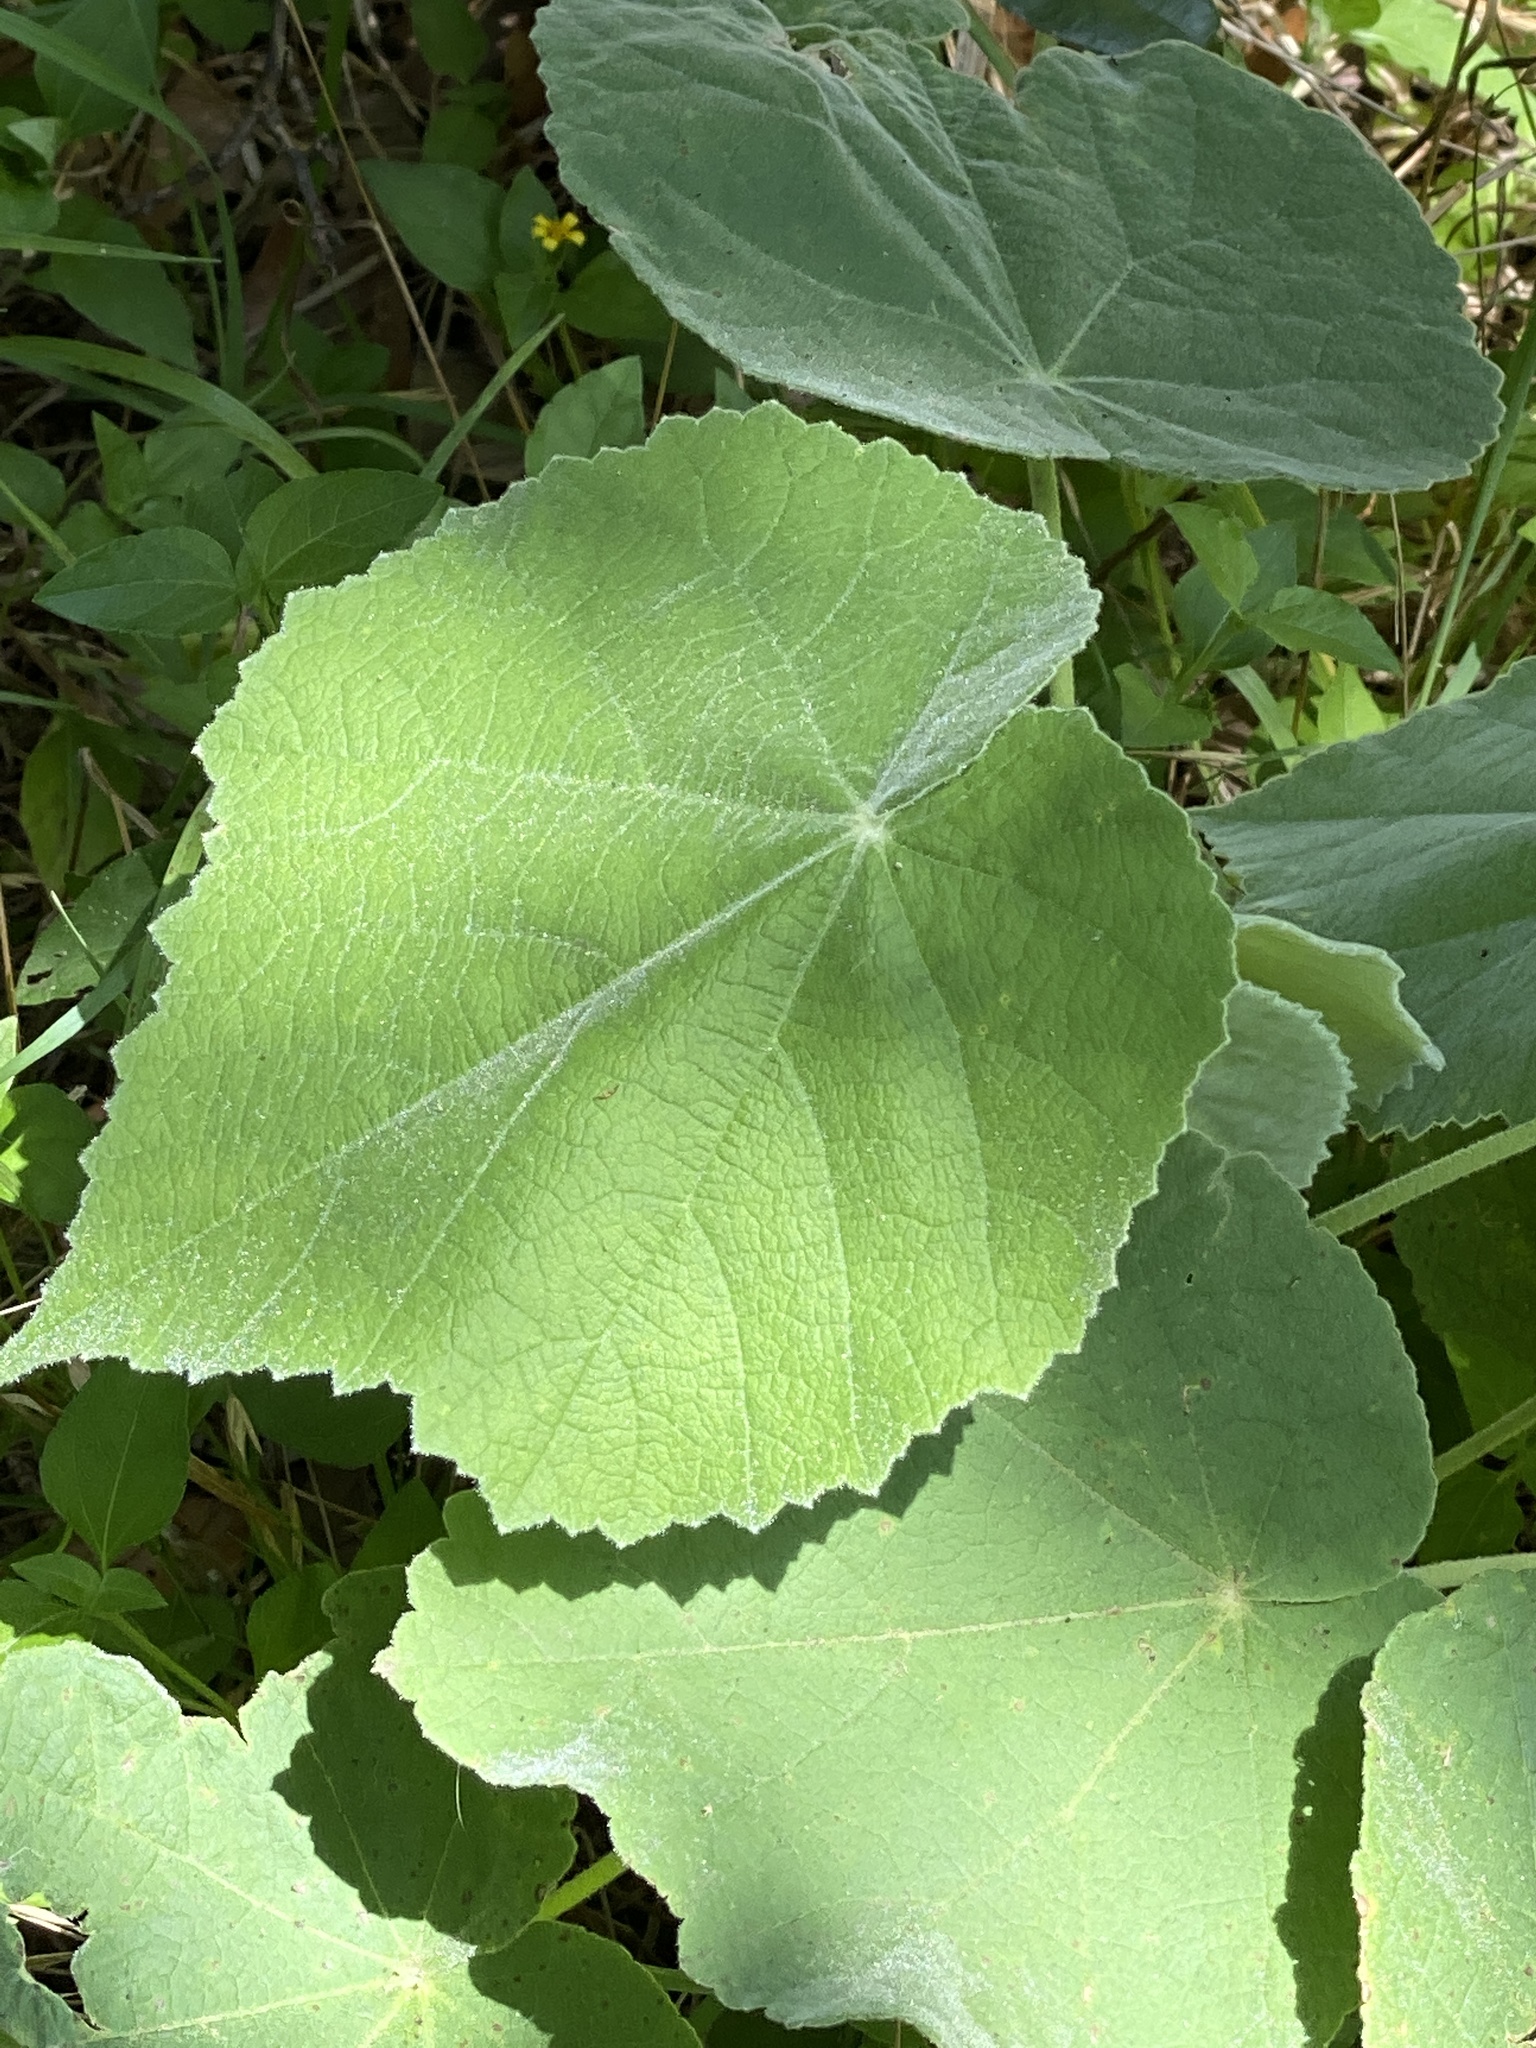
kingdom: Plantae
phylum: Tracheophyta
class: Magnoliopsida
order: Malvales
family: Malvaceae
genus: Allowissadula
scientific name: Allowissadula holosericea
